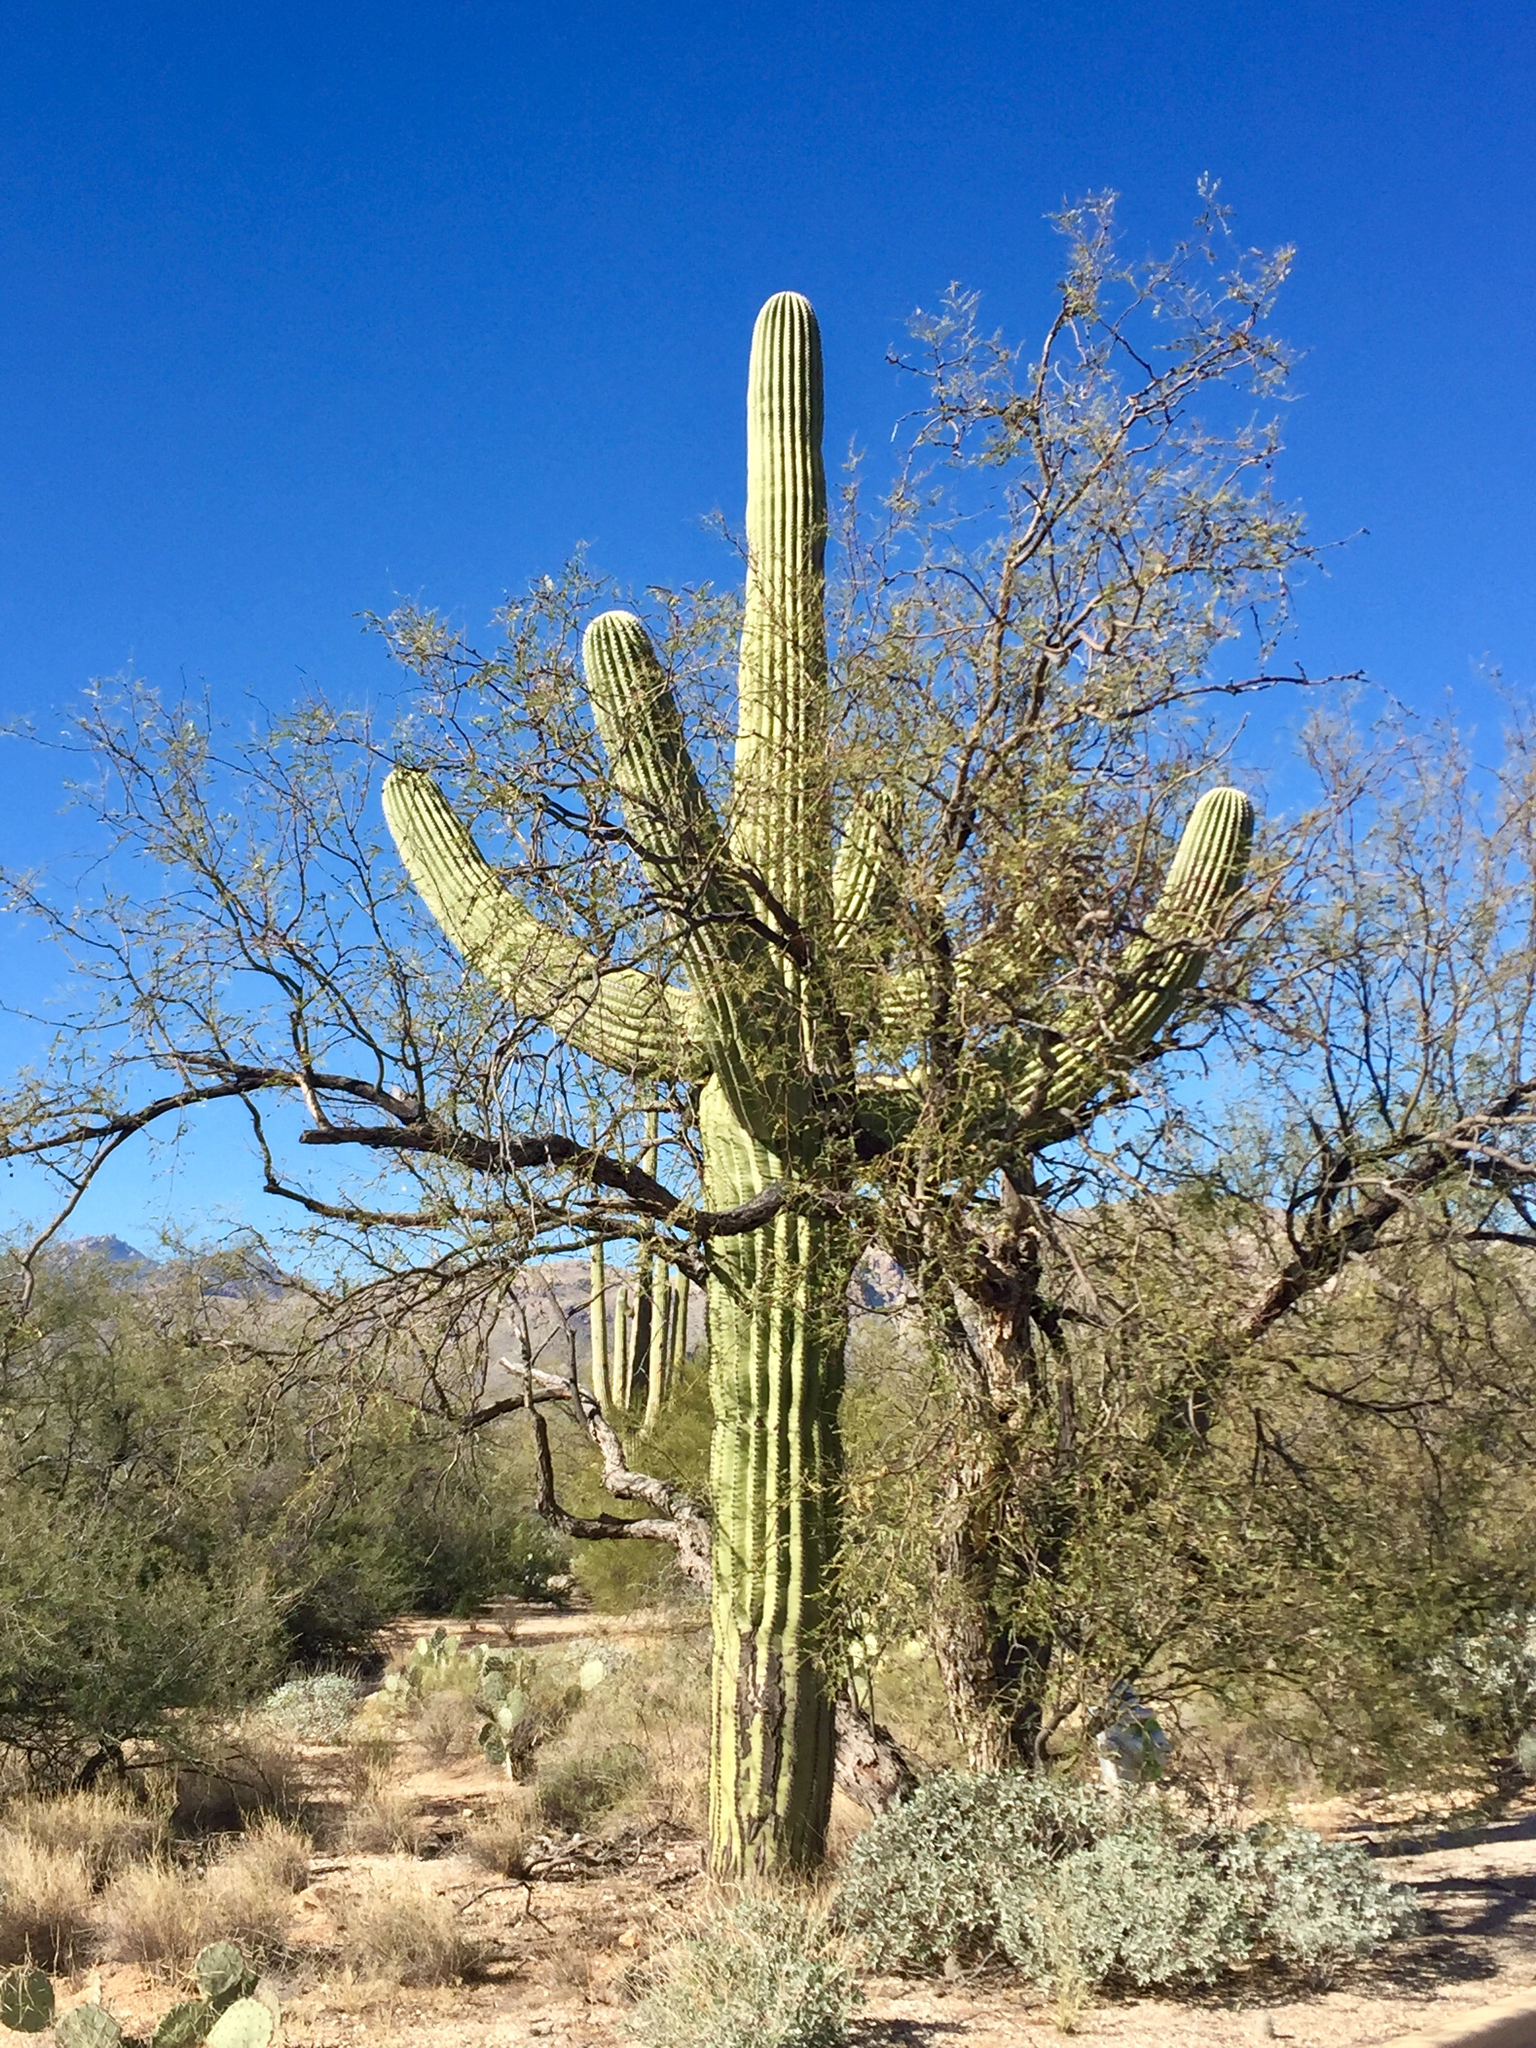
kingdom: Plantae
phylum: Tracheophyta
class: Magnoliopsida
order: Caryophyllales
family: Cactaceae
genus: Carnegiea
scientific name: Carnegiea gigantea
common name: Saguaro
